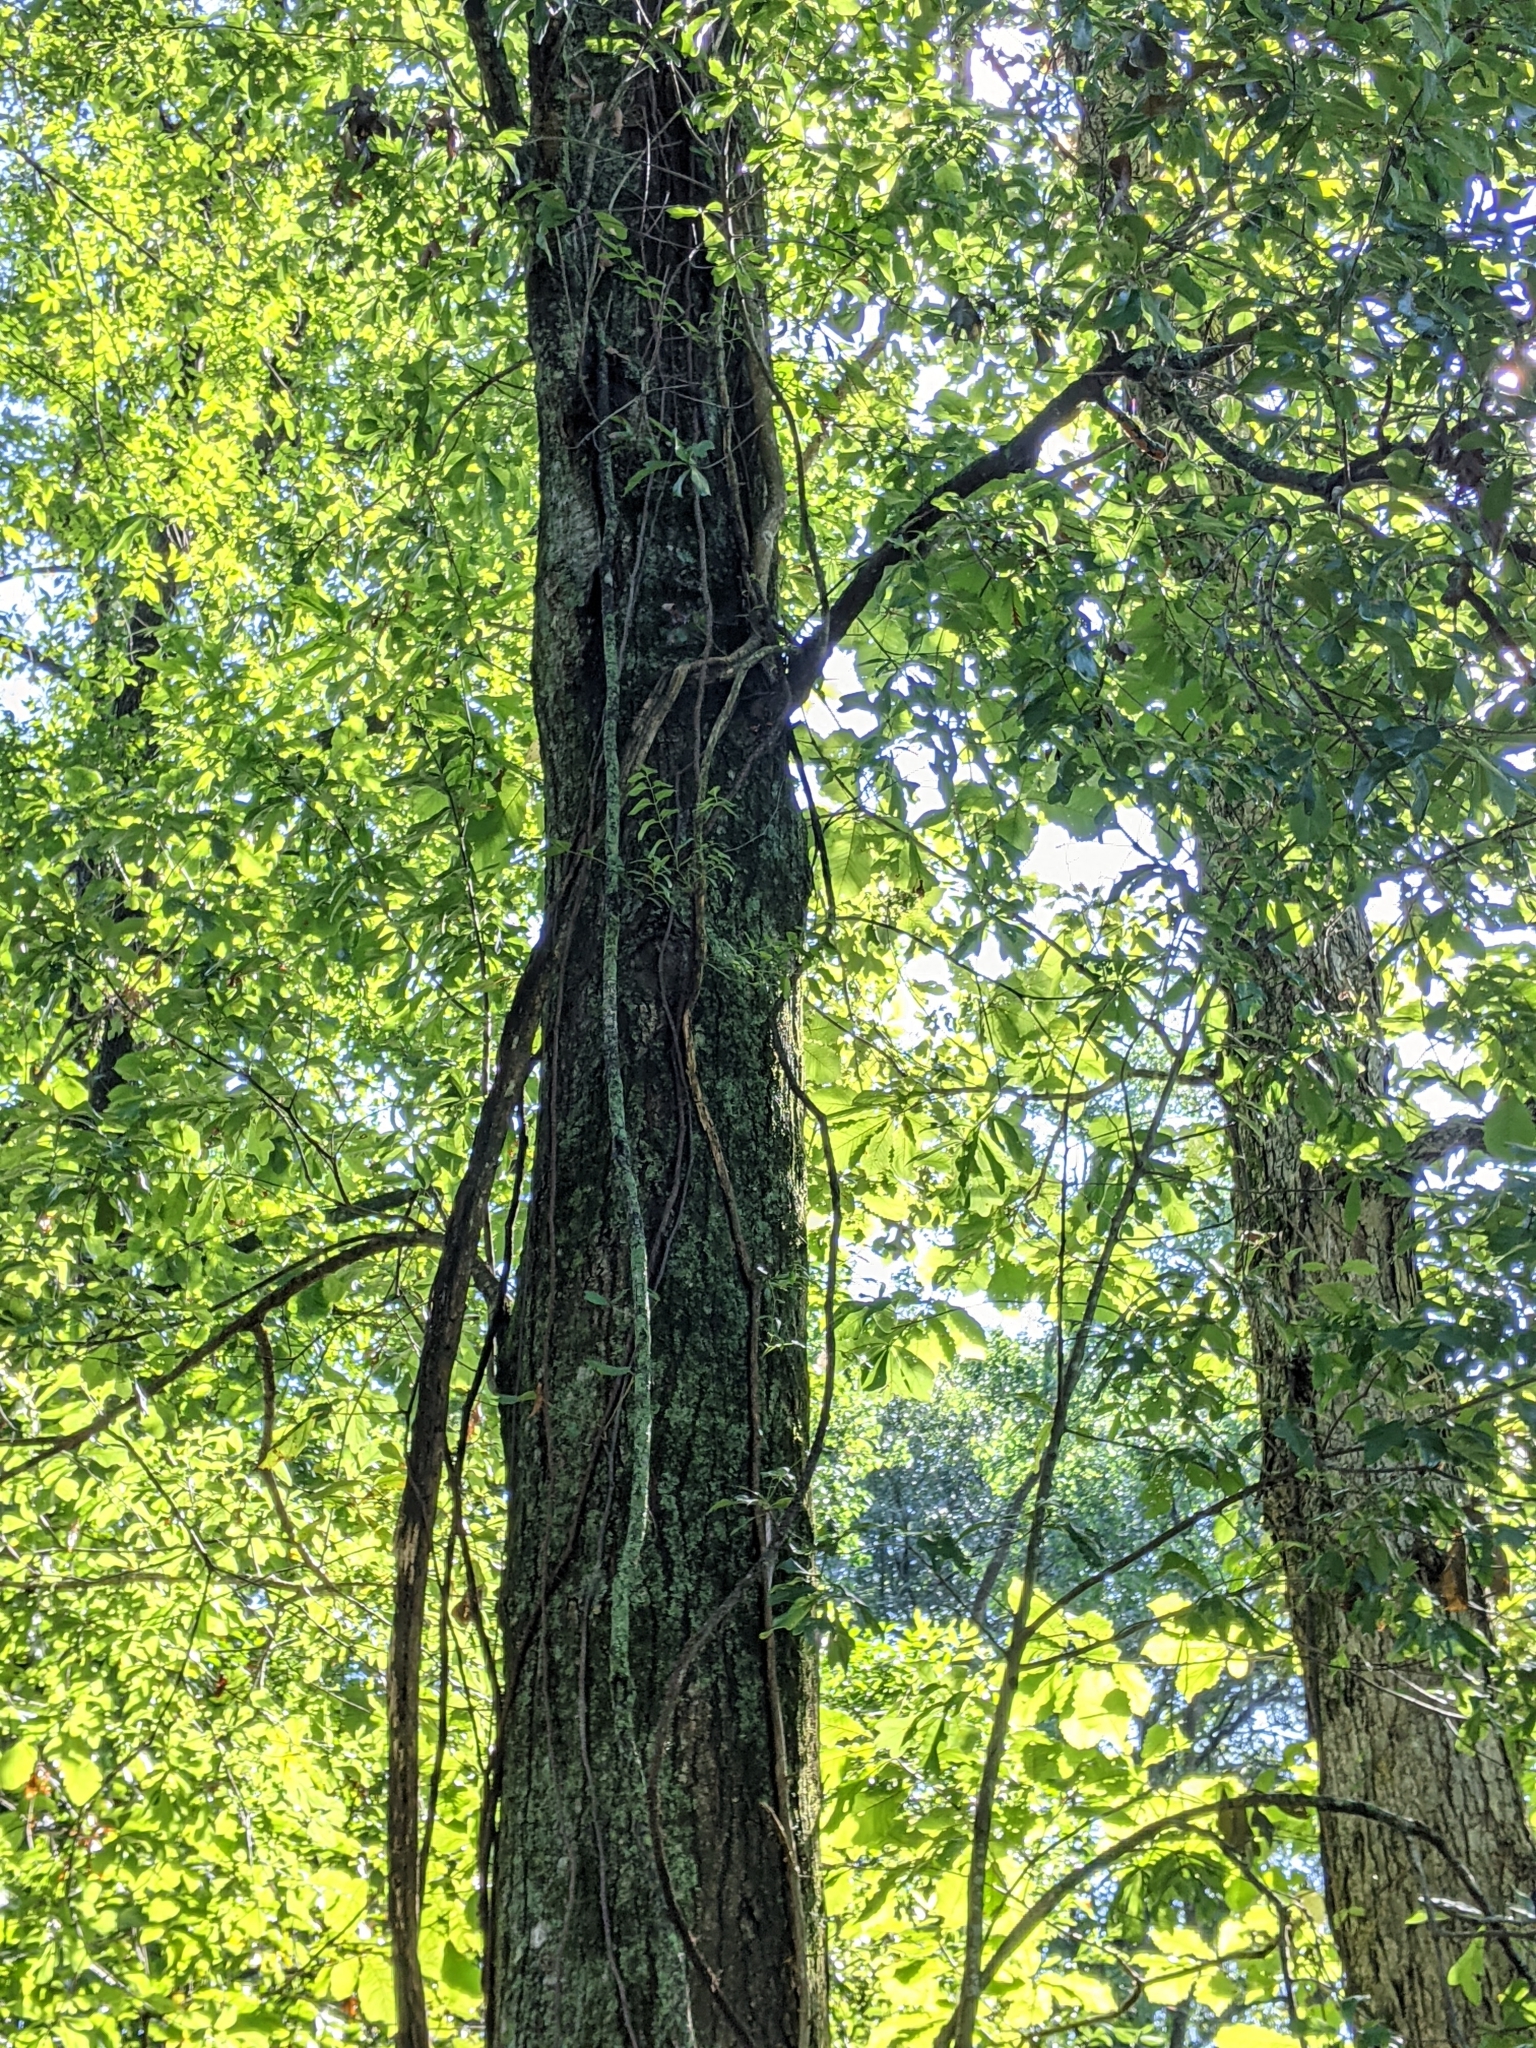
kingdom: Plantae
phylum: Tracheophyta
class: Magnoliopsida
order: Lamiales
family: Bignoniaceae
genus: Campsis
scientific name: Campsis radicans
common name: Trumpet-creeper
